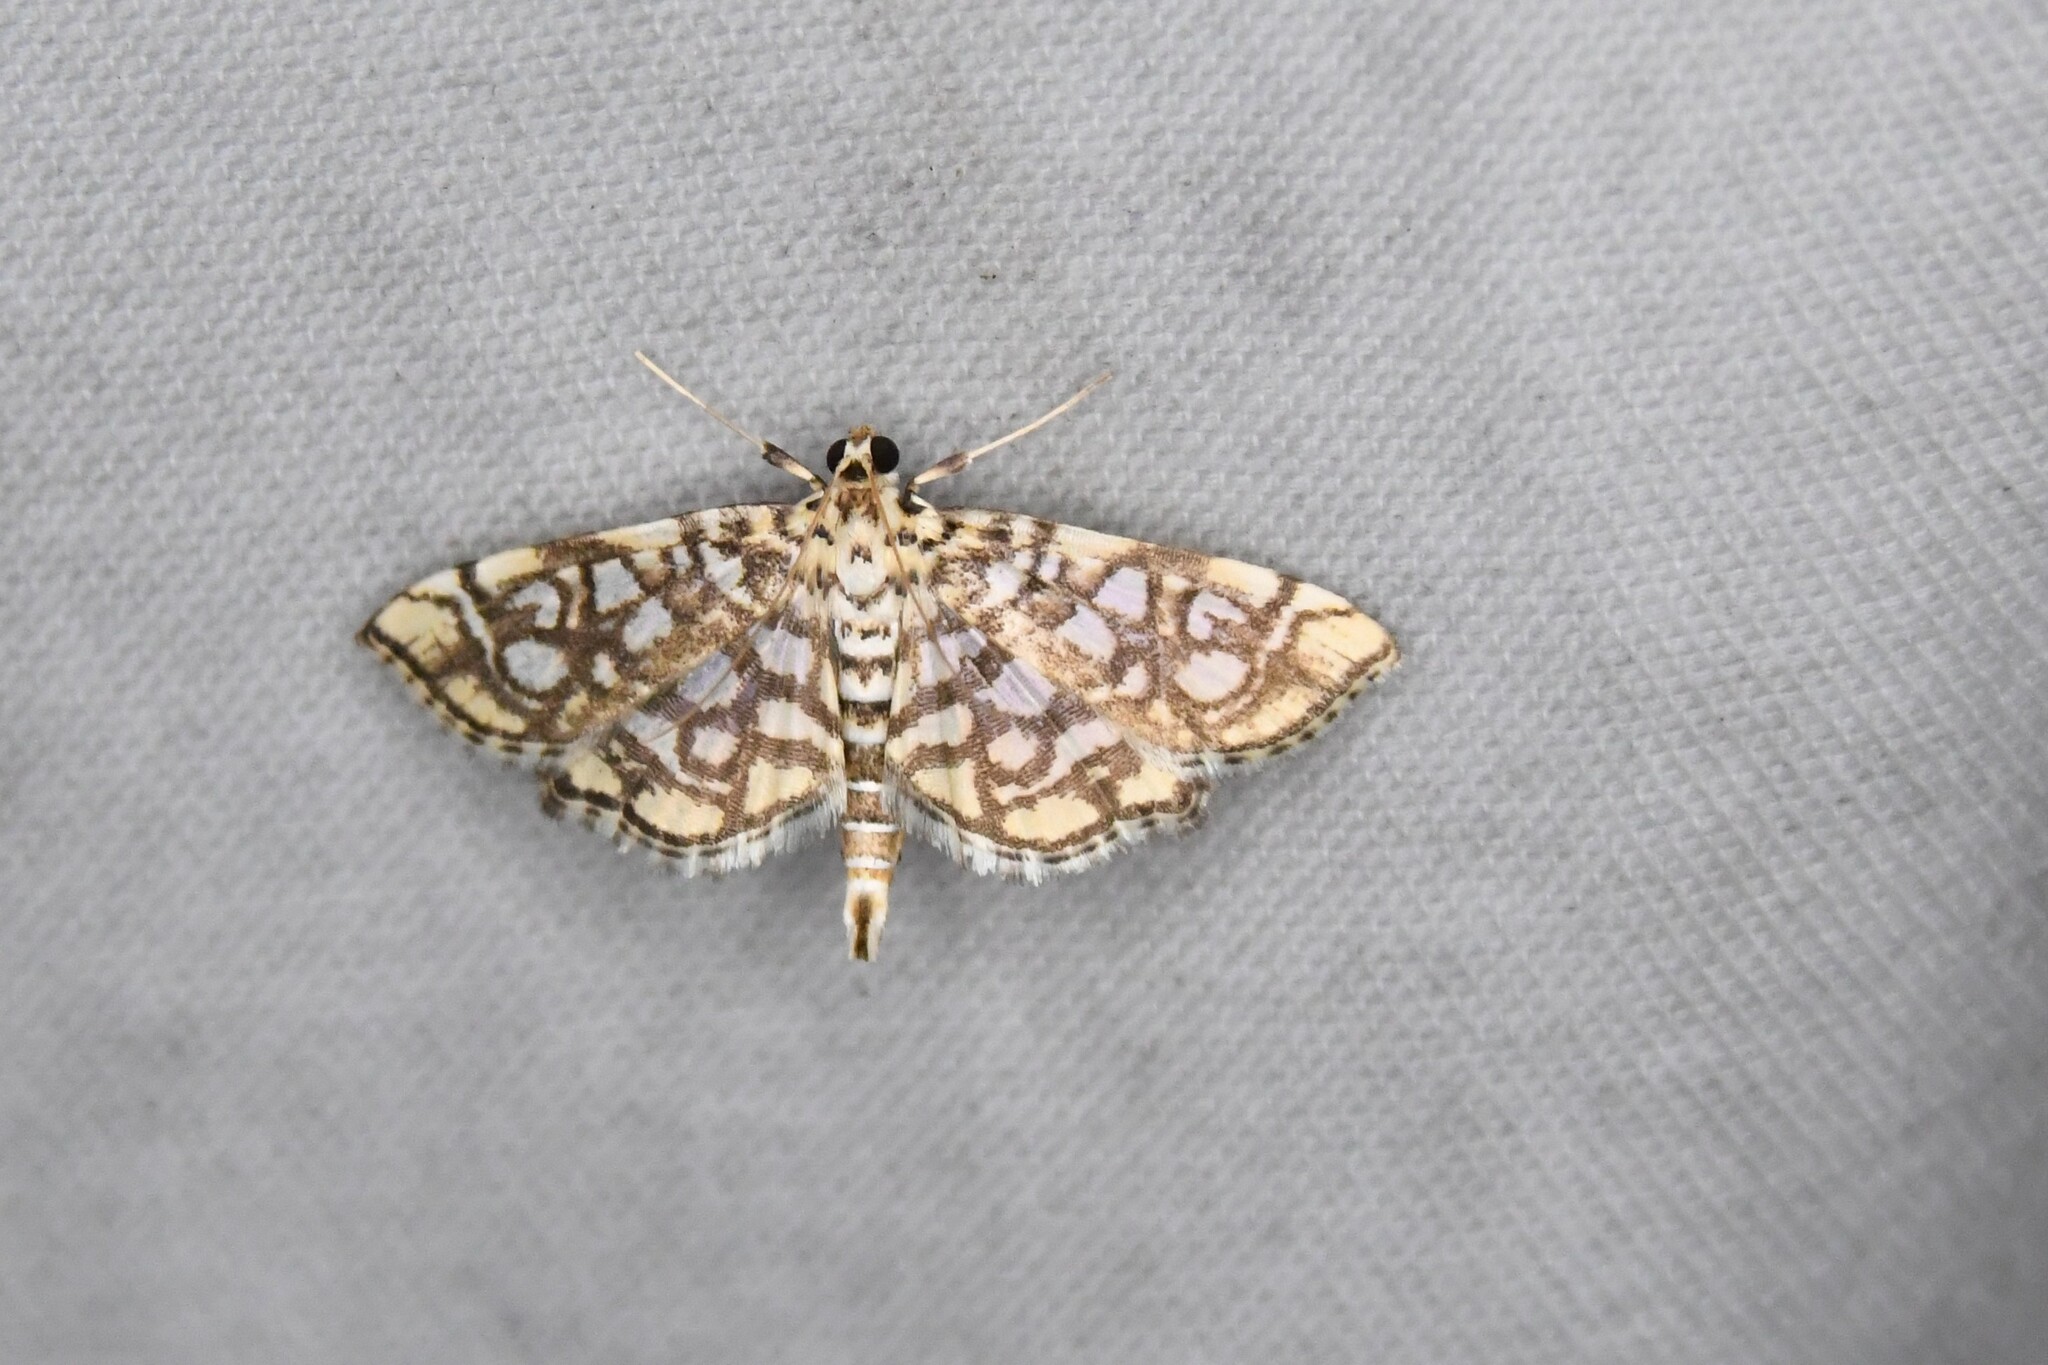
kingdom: Animalia
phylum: Arthropoda
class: Insecta
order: Lepidoptera
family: Crambidae
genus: Lygropia
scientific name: Lygropia rivulalis
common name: Bog lygropia moth
